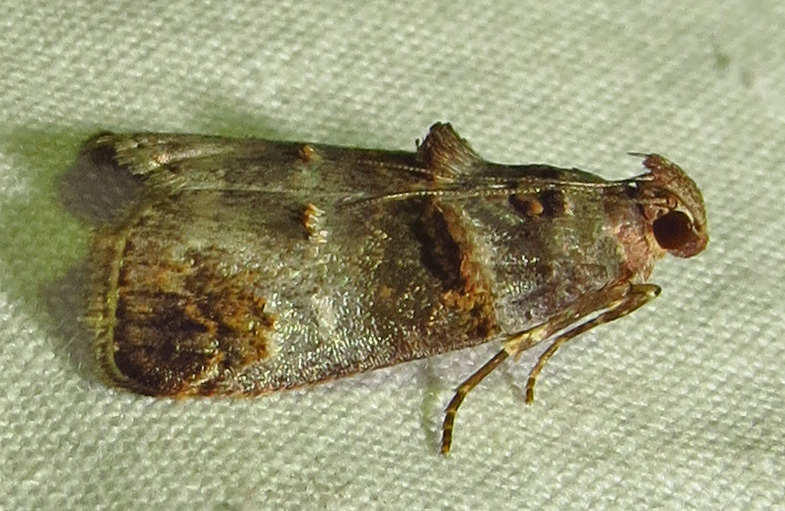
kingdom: Animalia
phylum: Arthropoda
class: Insecta
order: Lepidoptera
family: Pyralidae
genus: Oneida
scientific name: Oneida lunulalis
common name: Orange-tufted oneida moth
